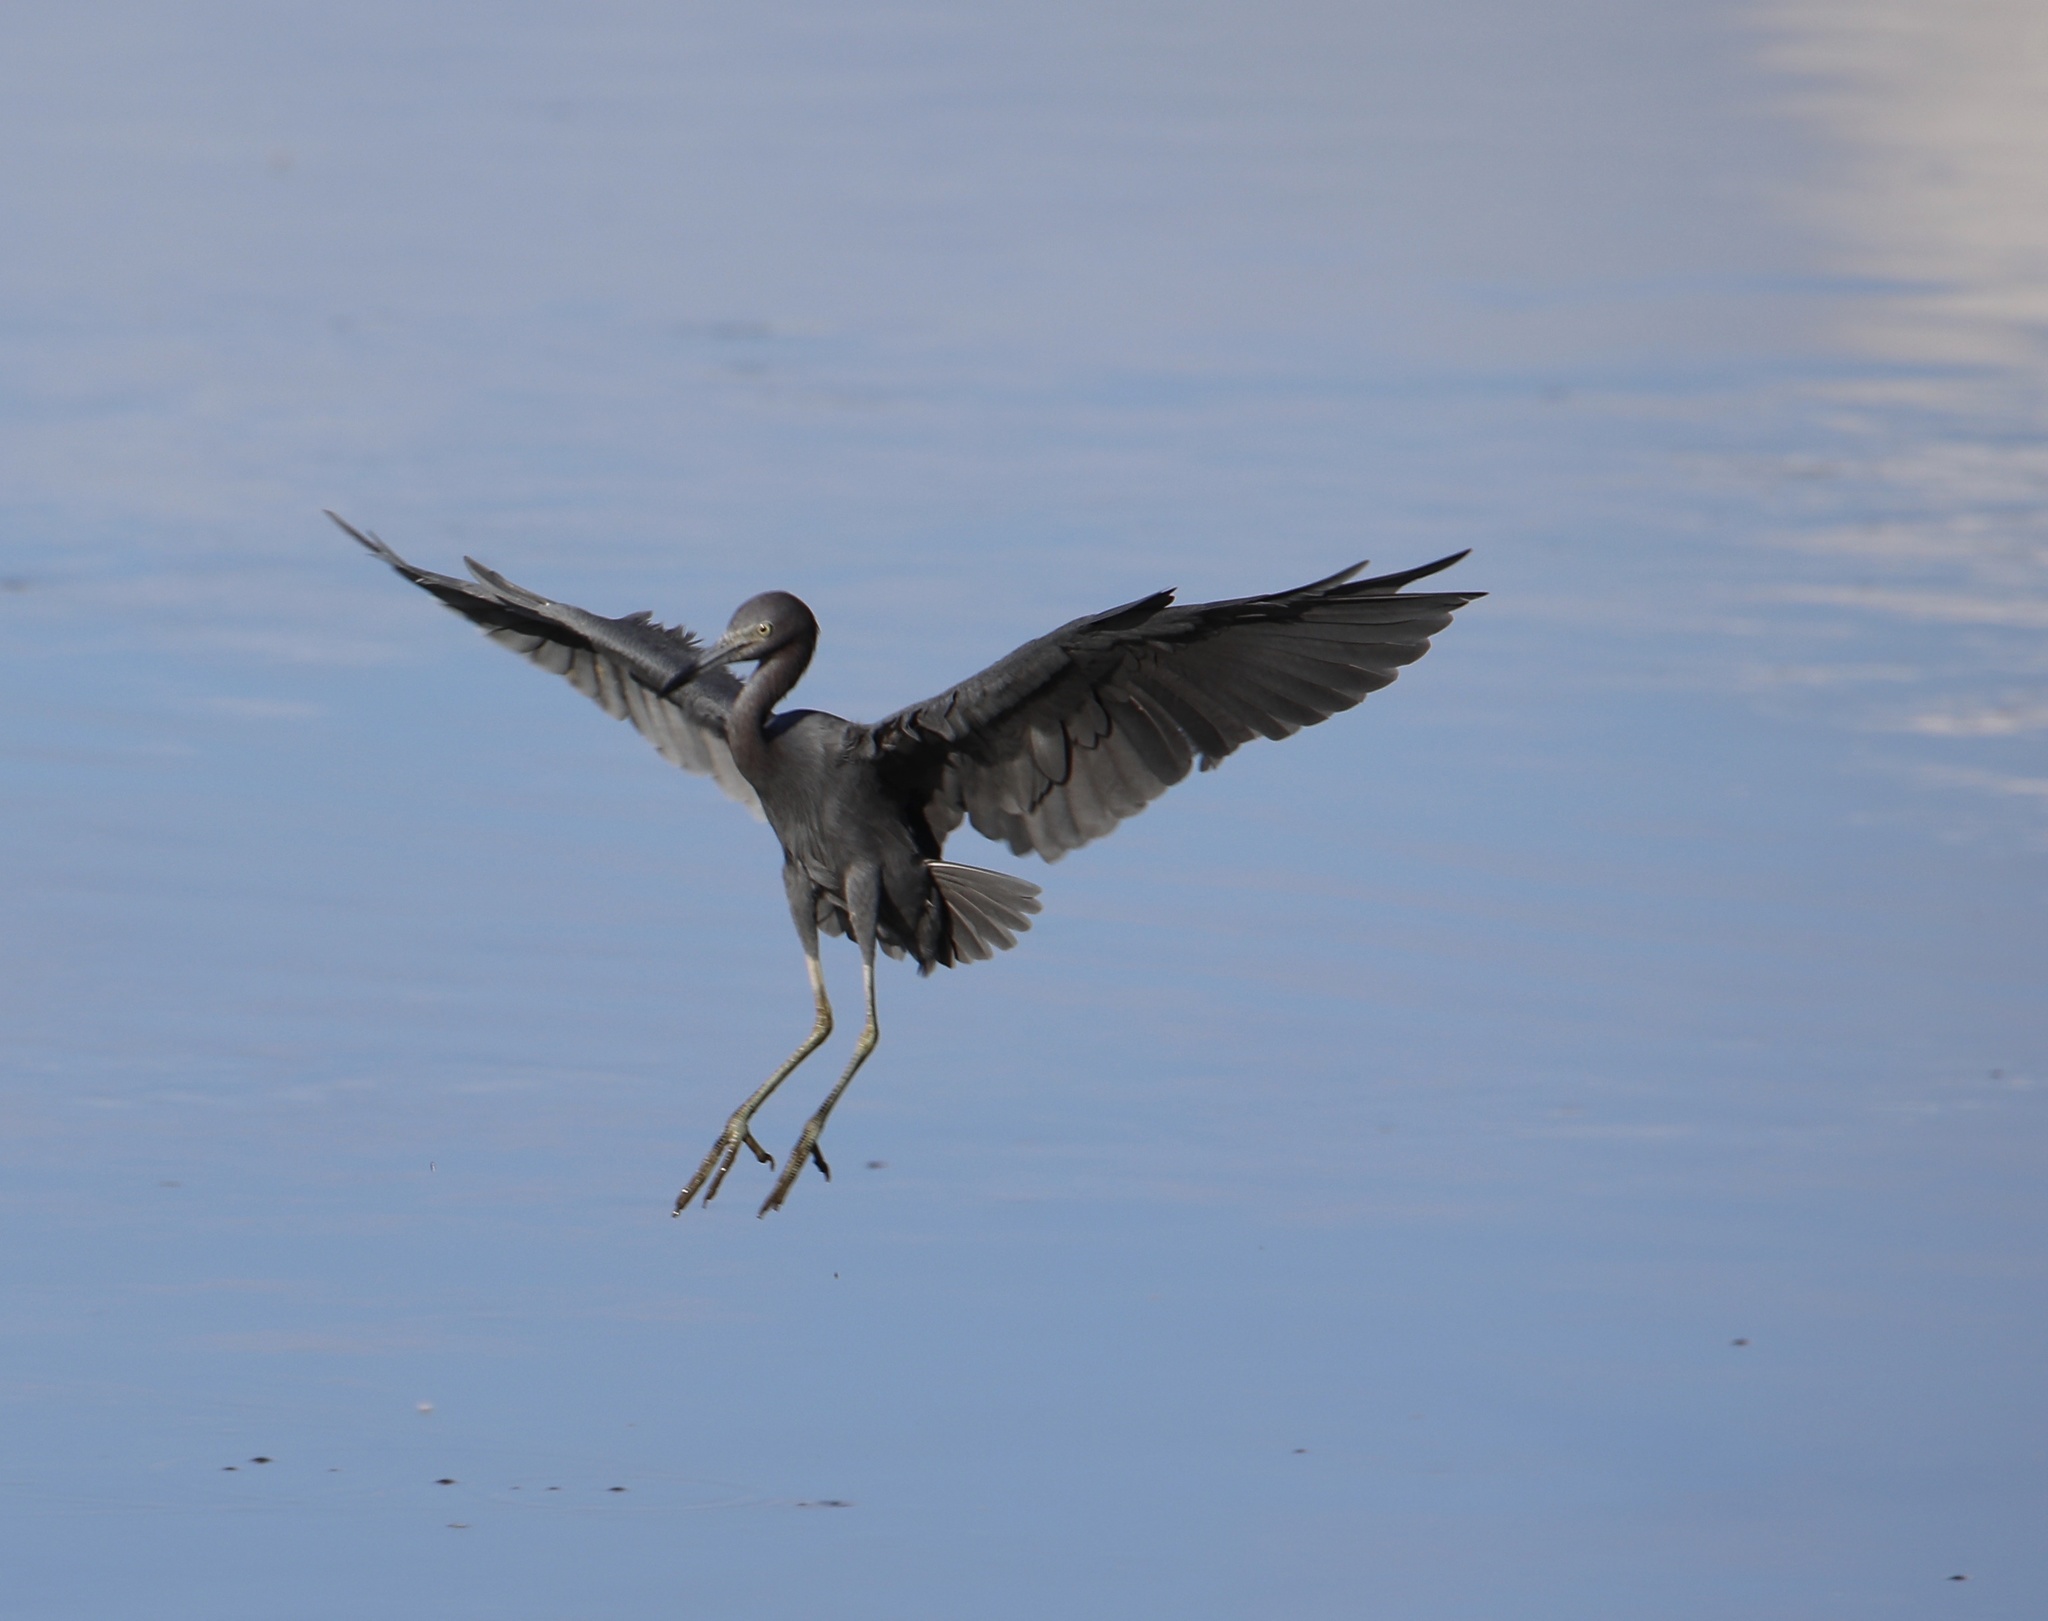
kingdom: Animalia
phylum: Chordata
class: Aves
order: Pelecaniformes
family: Ardeidae
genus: Egretta
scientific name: Egretta caerulea
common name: Little blue heron
